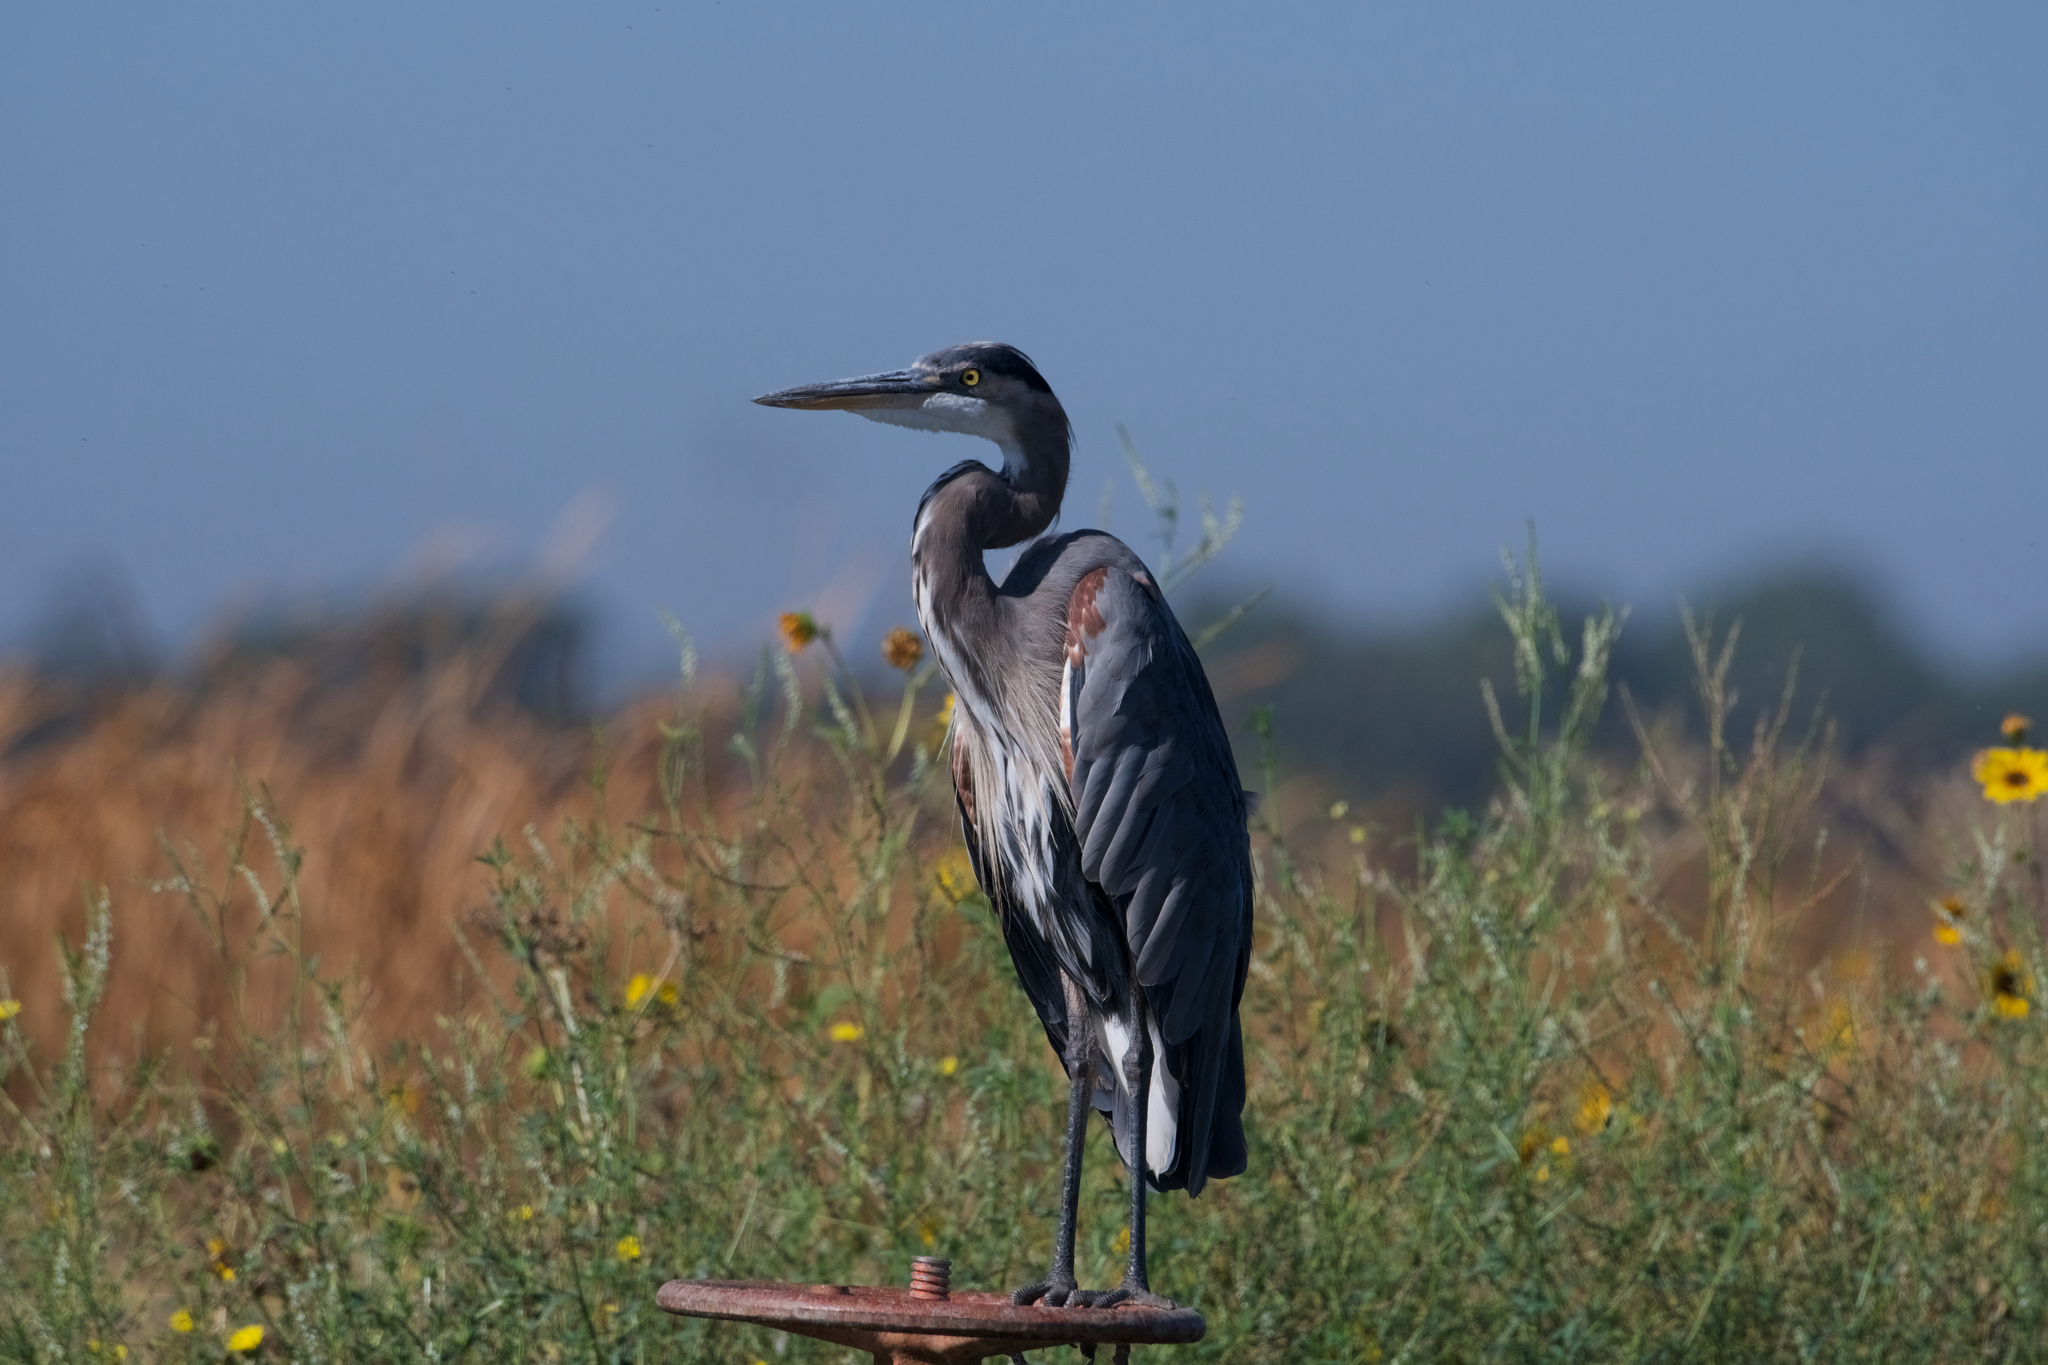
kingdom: Animalia
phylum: Chordata
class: Aves
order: Pelecaniformes
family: Ardeidae
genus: Ardea
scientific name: Ardea herodias
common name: Great blue heron
